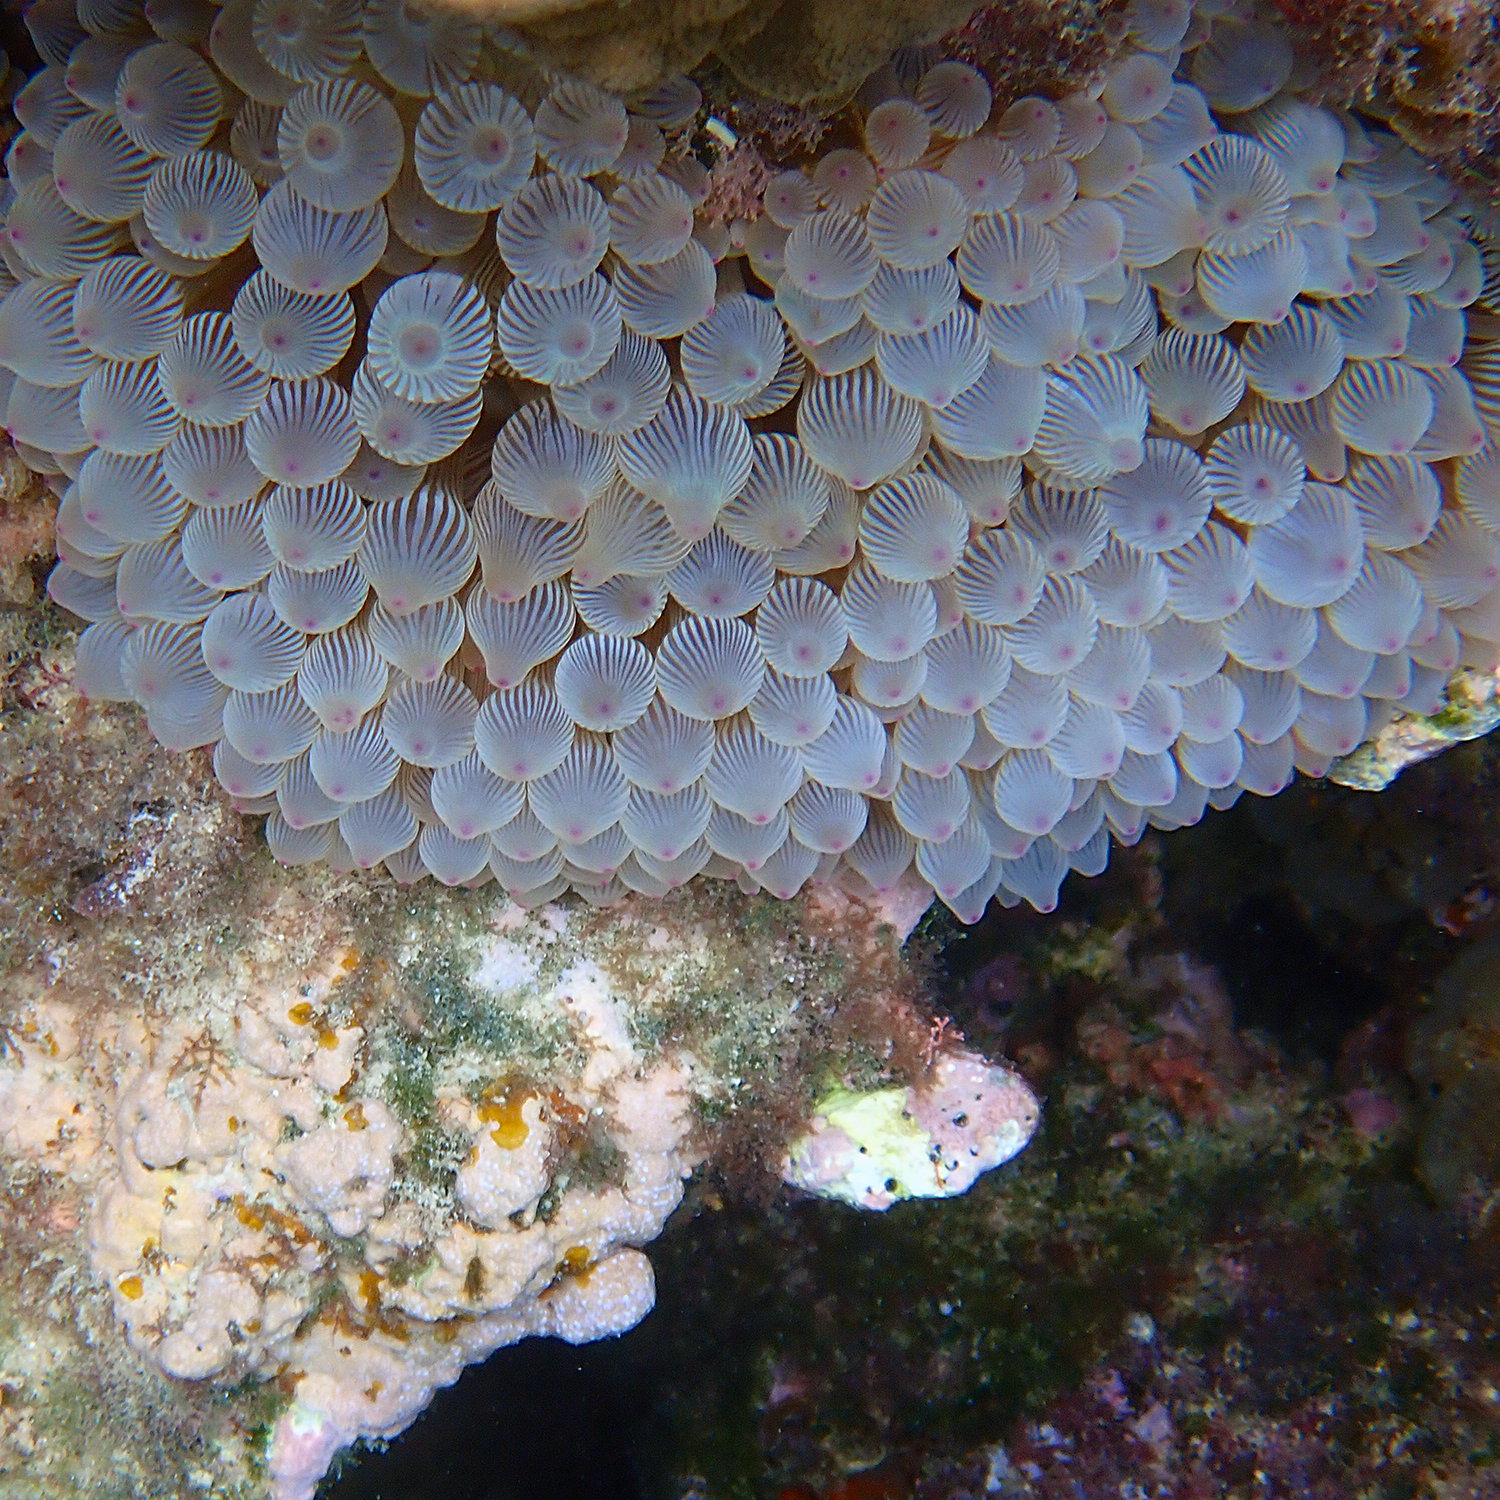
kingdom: Animalia
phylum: Cnidaria
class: Anthozoa
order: Actiniaria
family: Actiniidae
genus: Entacmaea
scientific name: Entacmaea quadricolor
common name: Bulb tentacle sea anemone
